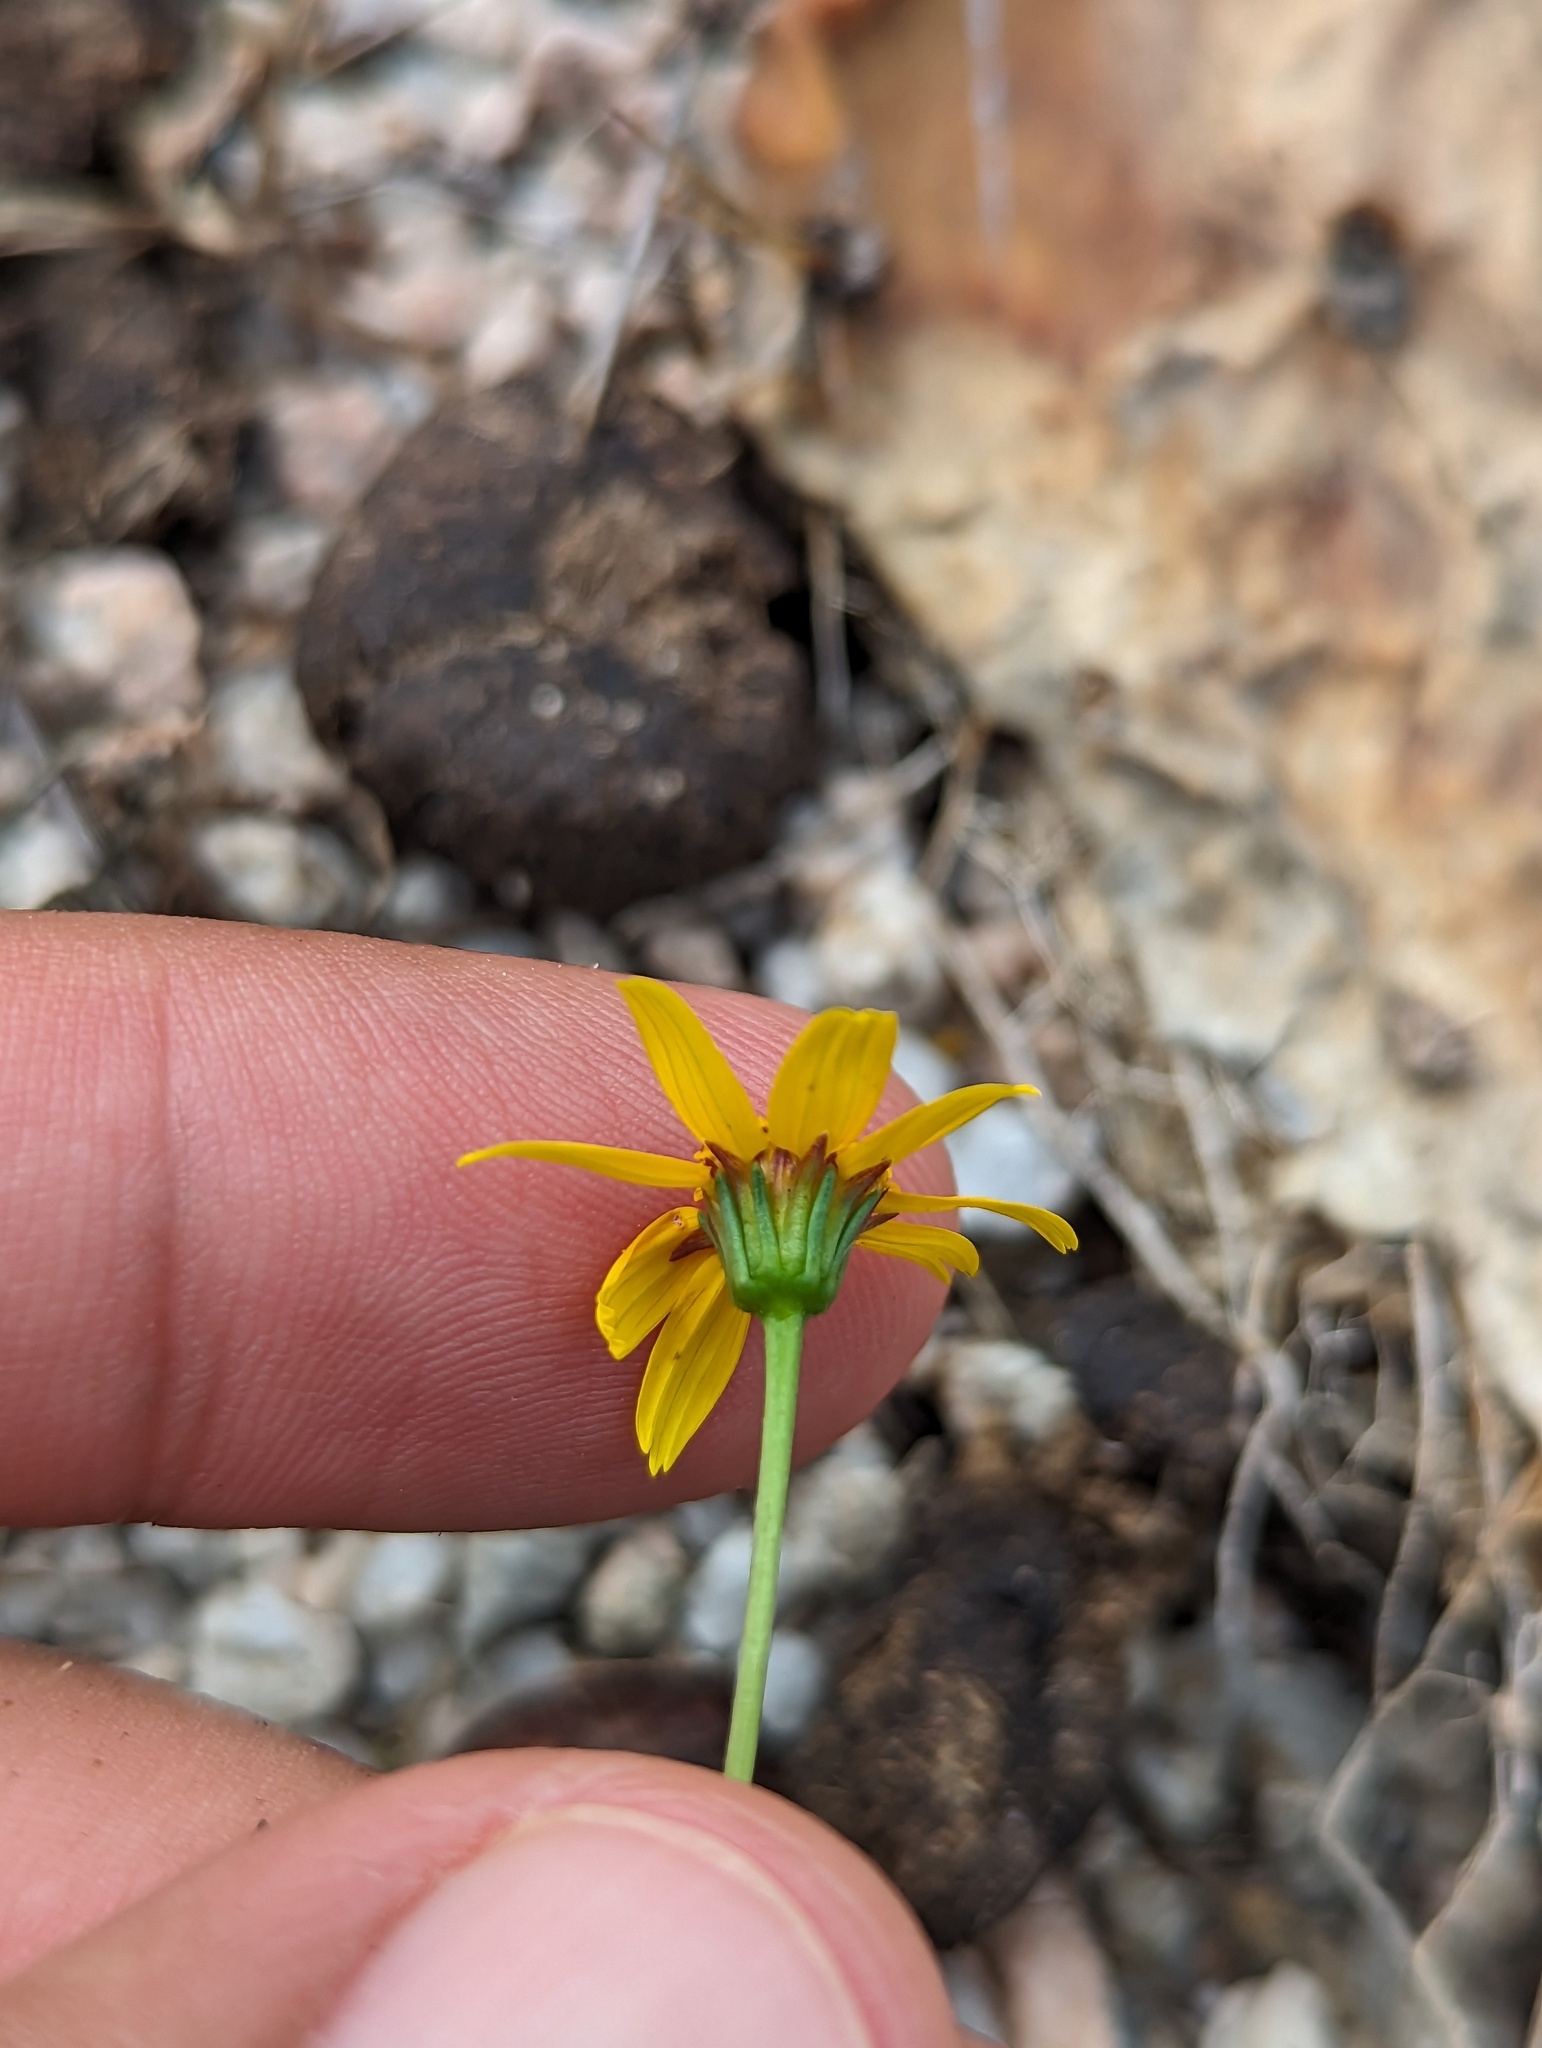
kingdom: Plantae
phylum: Tracheophyta
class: Magnoliopsida
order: Asterales
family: Asteraceae
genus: Bidens
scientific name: Bidens xanti
